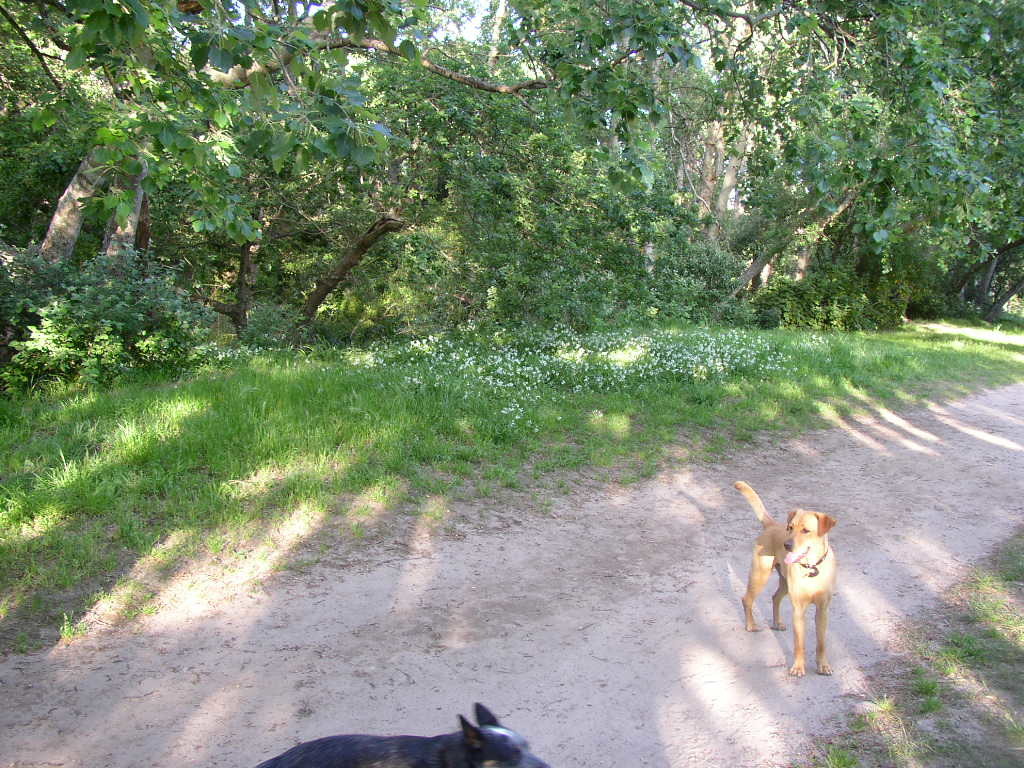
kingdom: Plantae
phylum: Tracheophyta
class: Liliopsida
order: Asparagales
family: Amaryllidaceae
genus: Allium
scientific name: Allium triquetrum
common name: Three-cornered garlic
